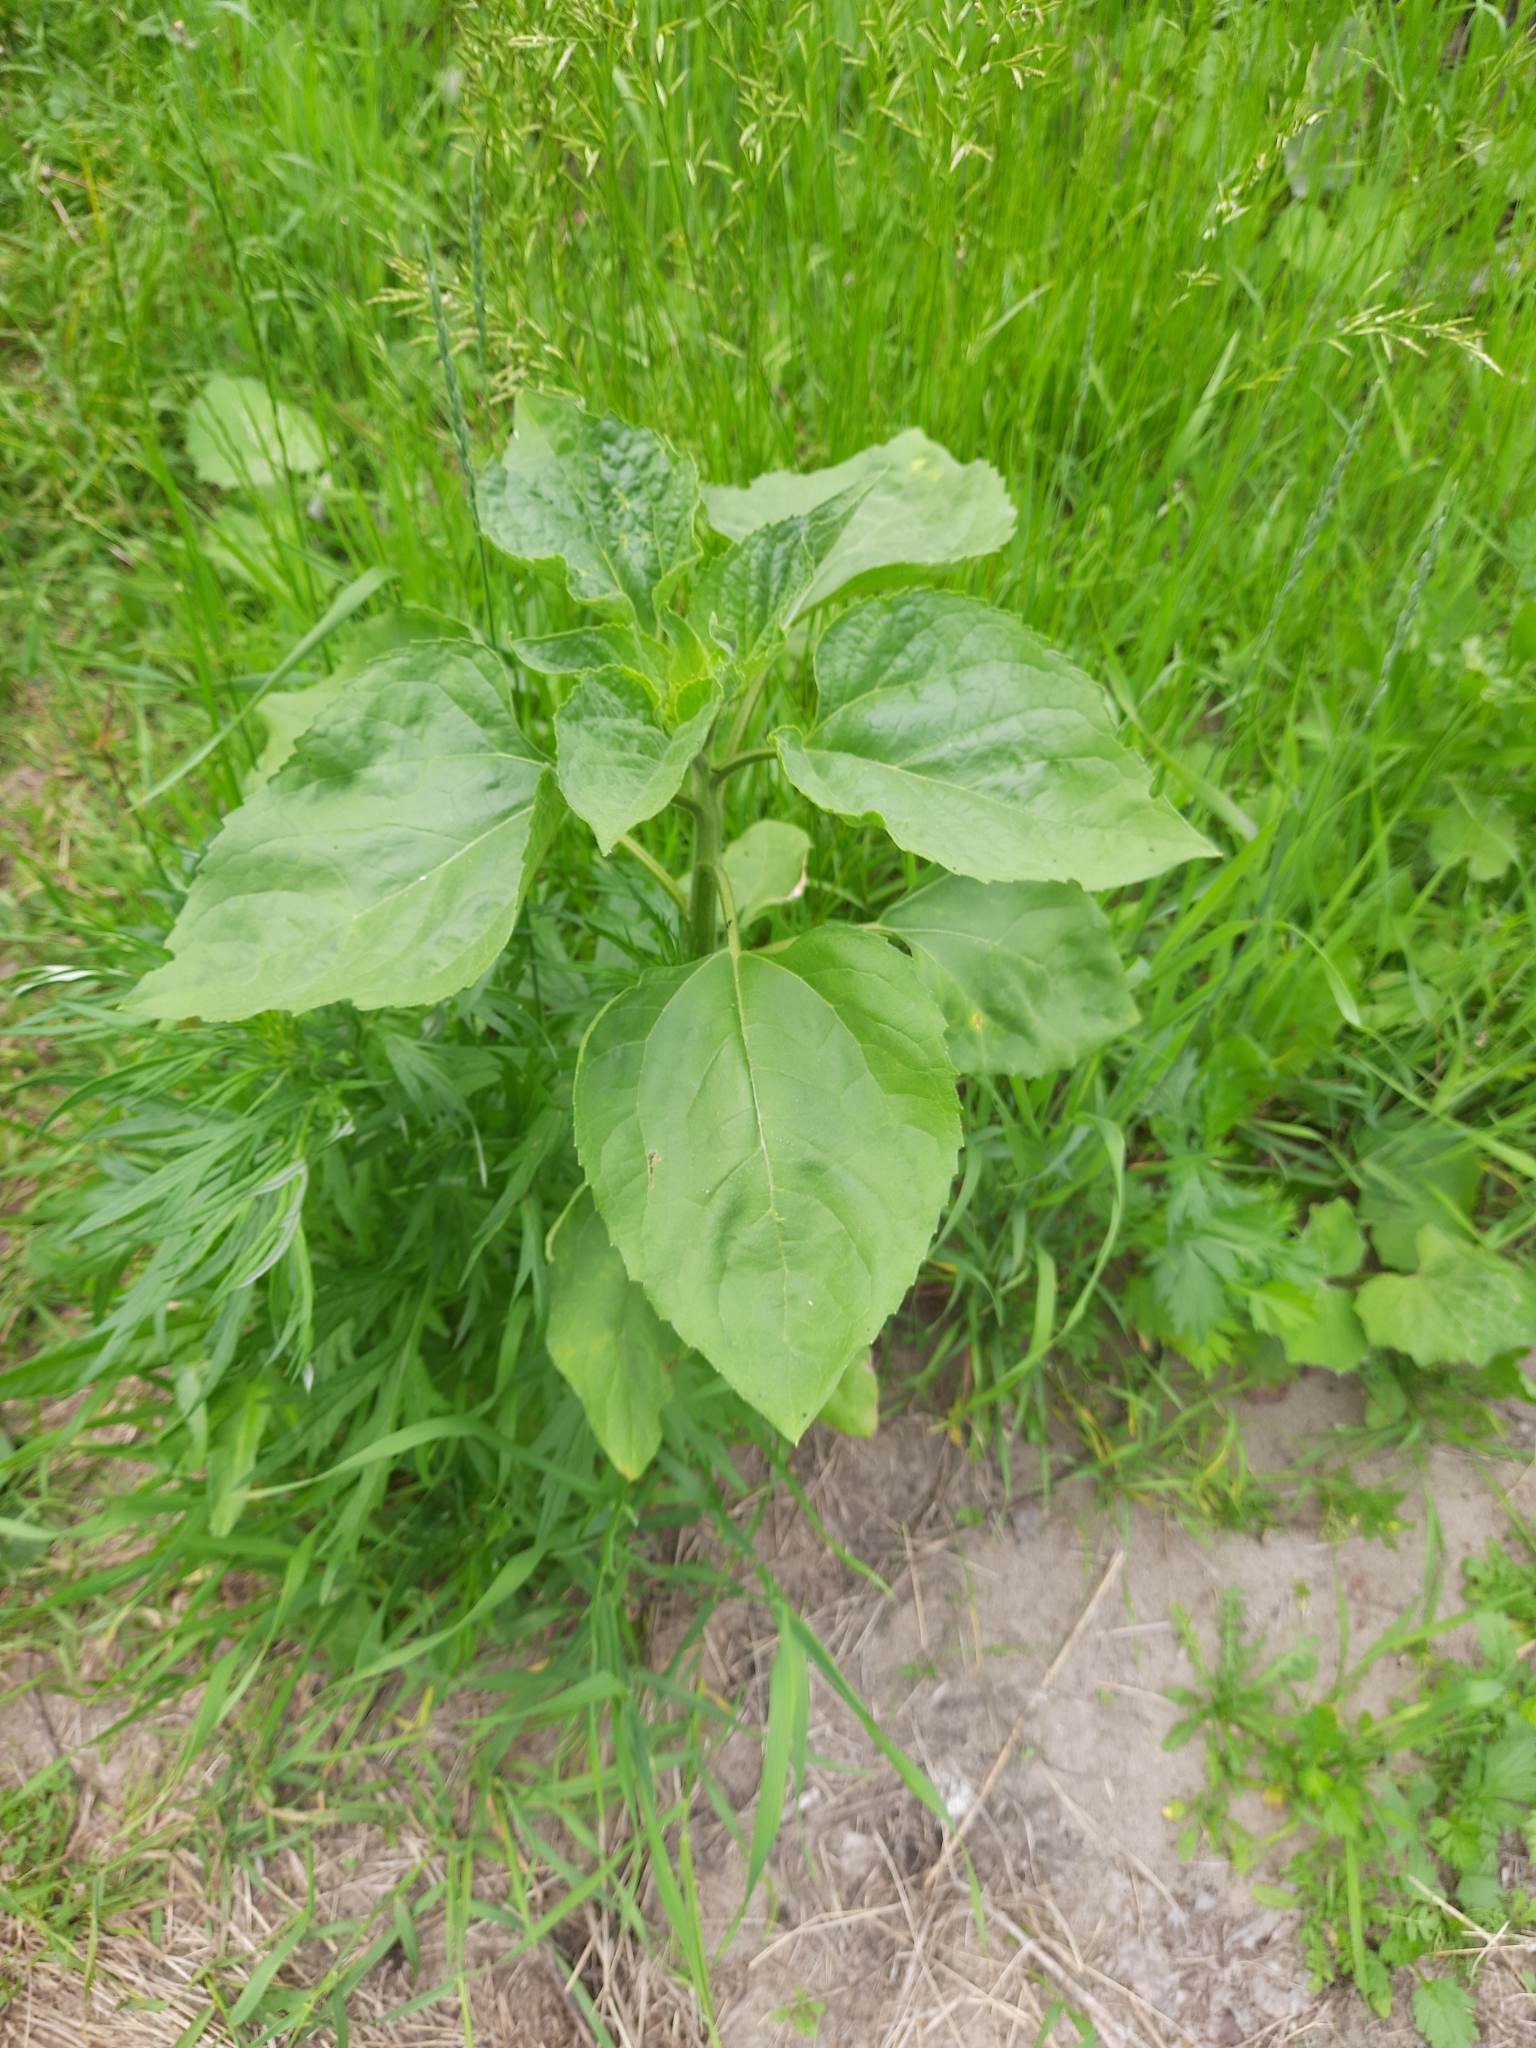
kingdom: Plantae
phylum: Tracheophyta
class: Magnoliopsida
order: Asterales
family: Asteraceae
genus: Helianthus
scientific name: Helianthus annuus
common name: Sunflower
